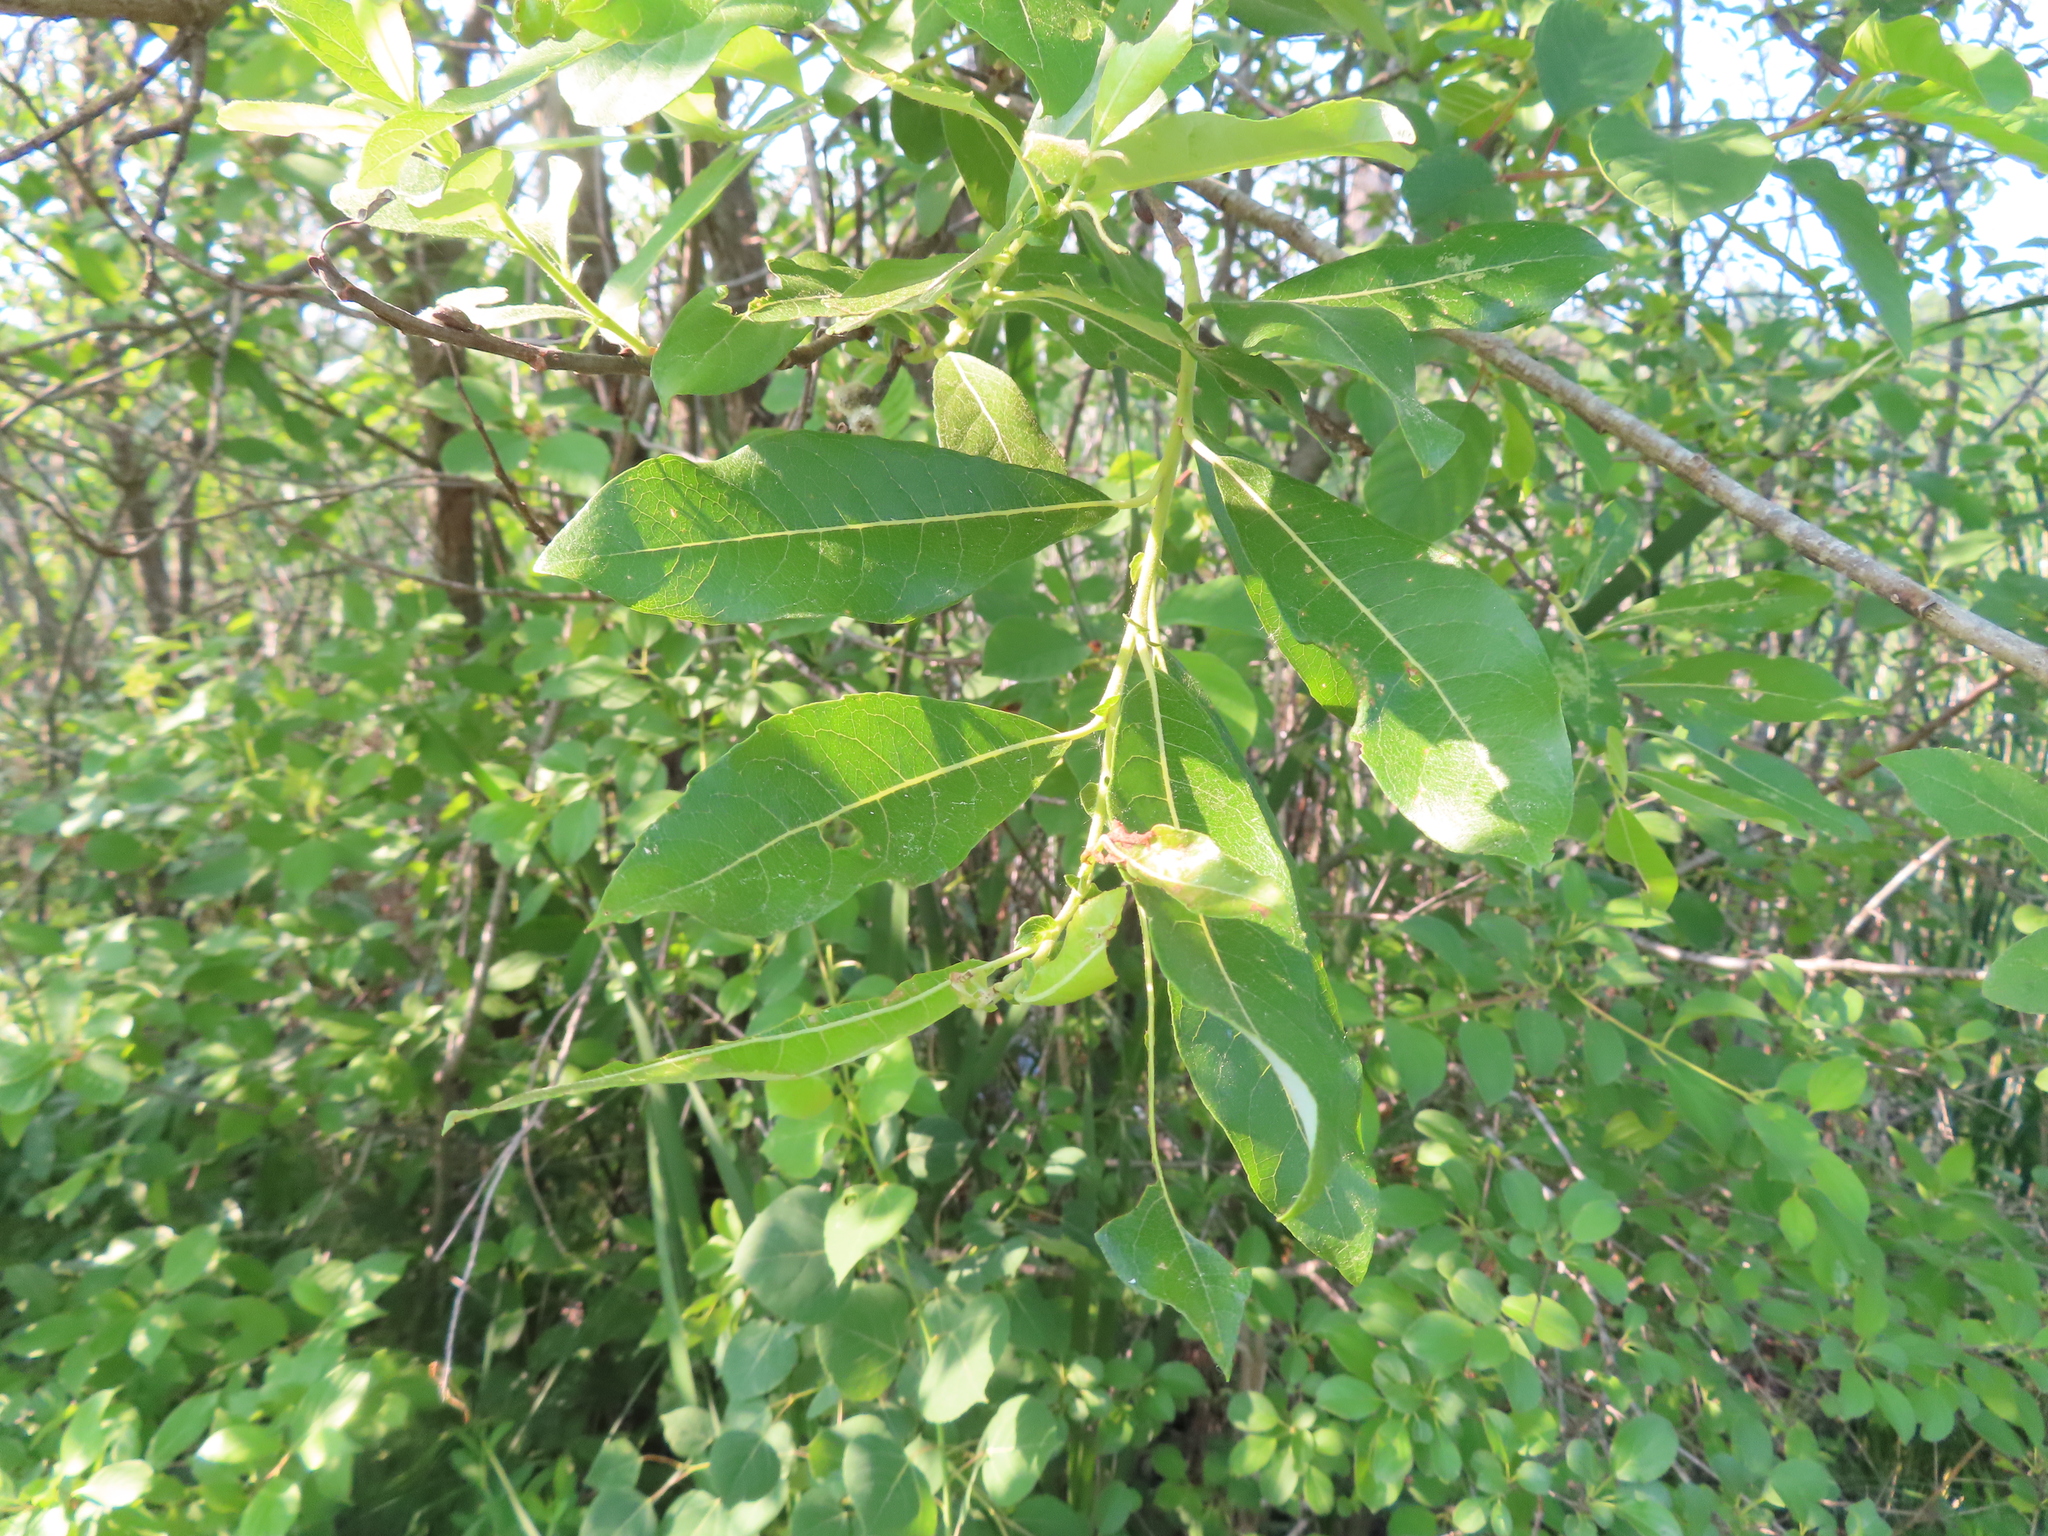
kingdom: Plantae
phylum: Tracheophyta
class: Magnoliopsida
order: Malpighiales
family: Salicaceae
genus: Salix
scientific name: Salix discolor
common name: Glaucous willow
